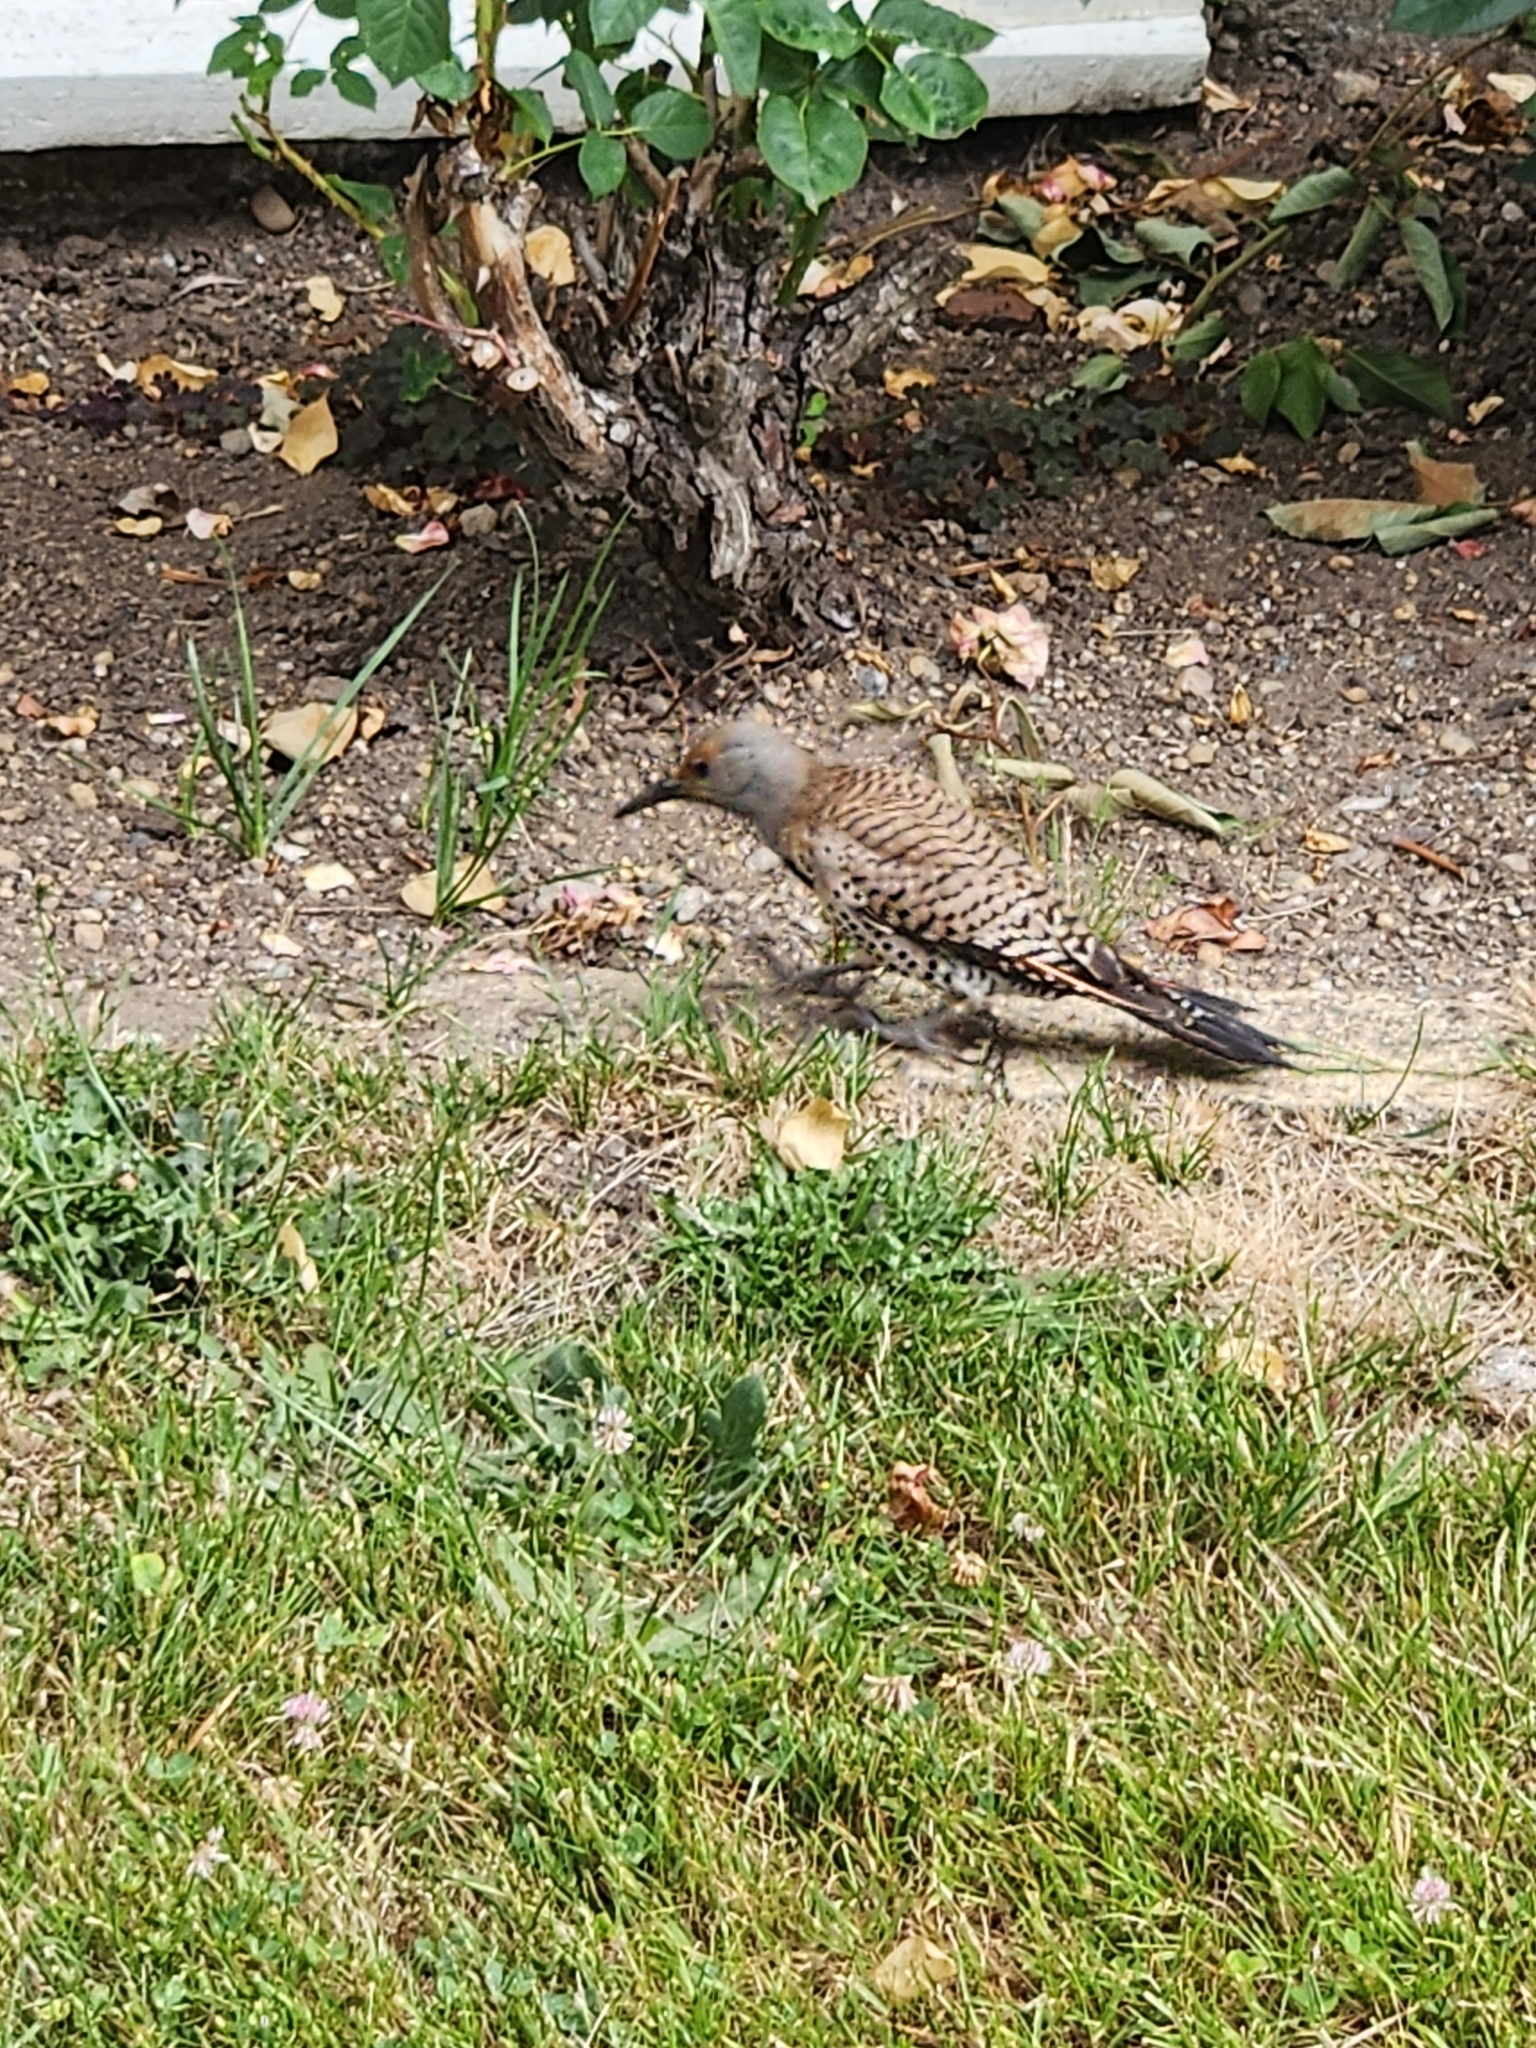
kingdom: Animalia
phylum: Chordata
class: Aves
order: Piciformes
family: Picidae
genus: Colaptes
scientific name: Colaptes auratus
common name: Northern flicker
